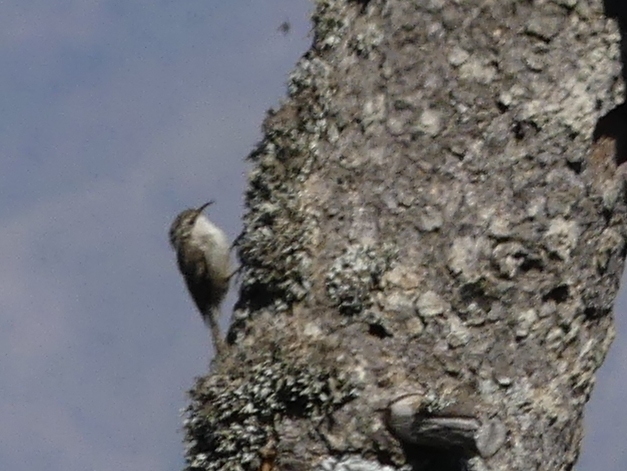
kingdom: Animalia
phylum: Chordata
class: Aves
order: Passeriformes
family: Certhiidae
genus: Certhia
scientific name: Certhia brachydactyla
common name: Short-toed treecreeper
